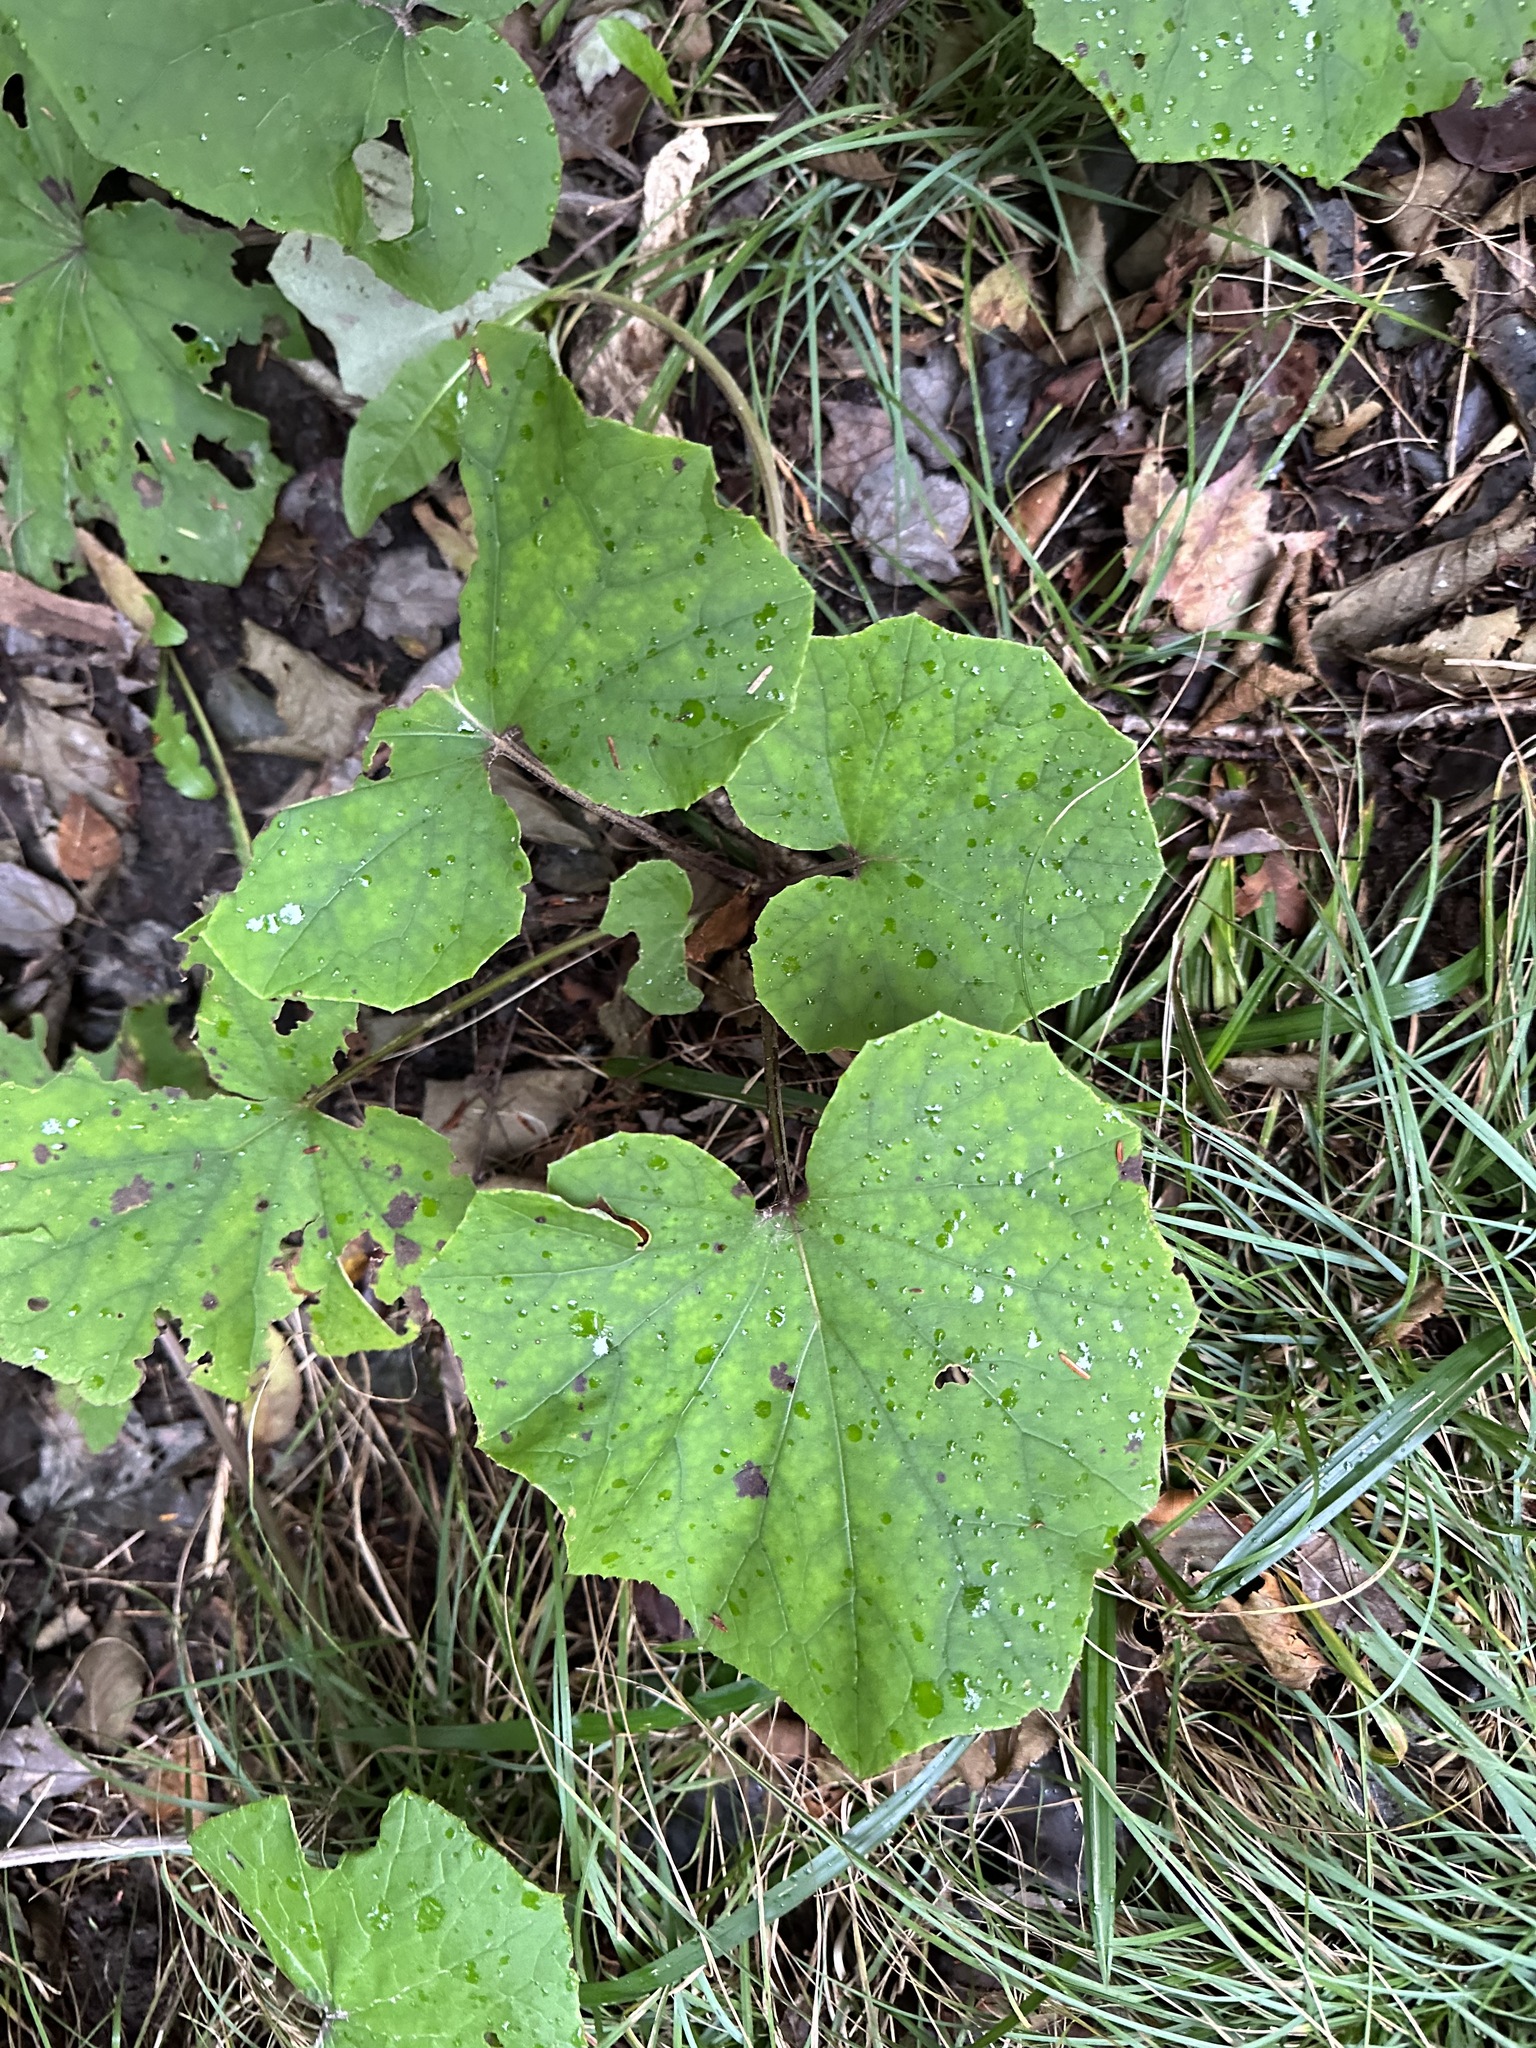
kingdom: Plantae
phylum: Tracheophyta
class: Magnoliopsida
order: Asterales
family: Asteraceae
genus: Tussilago
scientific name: Tussilago farfara
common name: Coltsfoot
